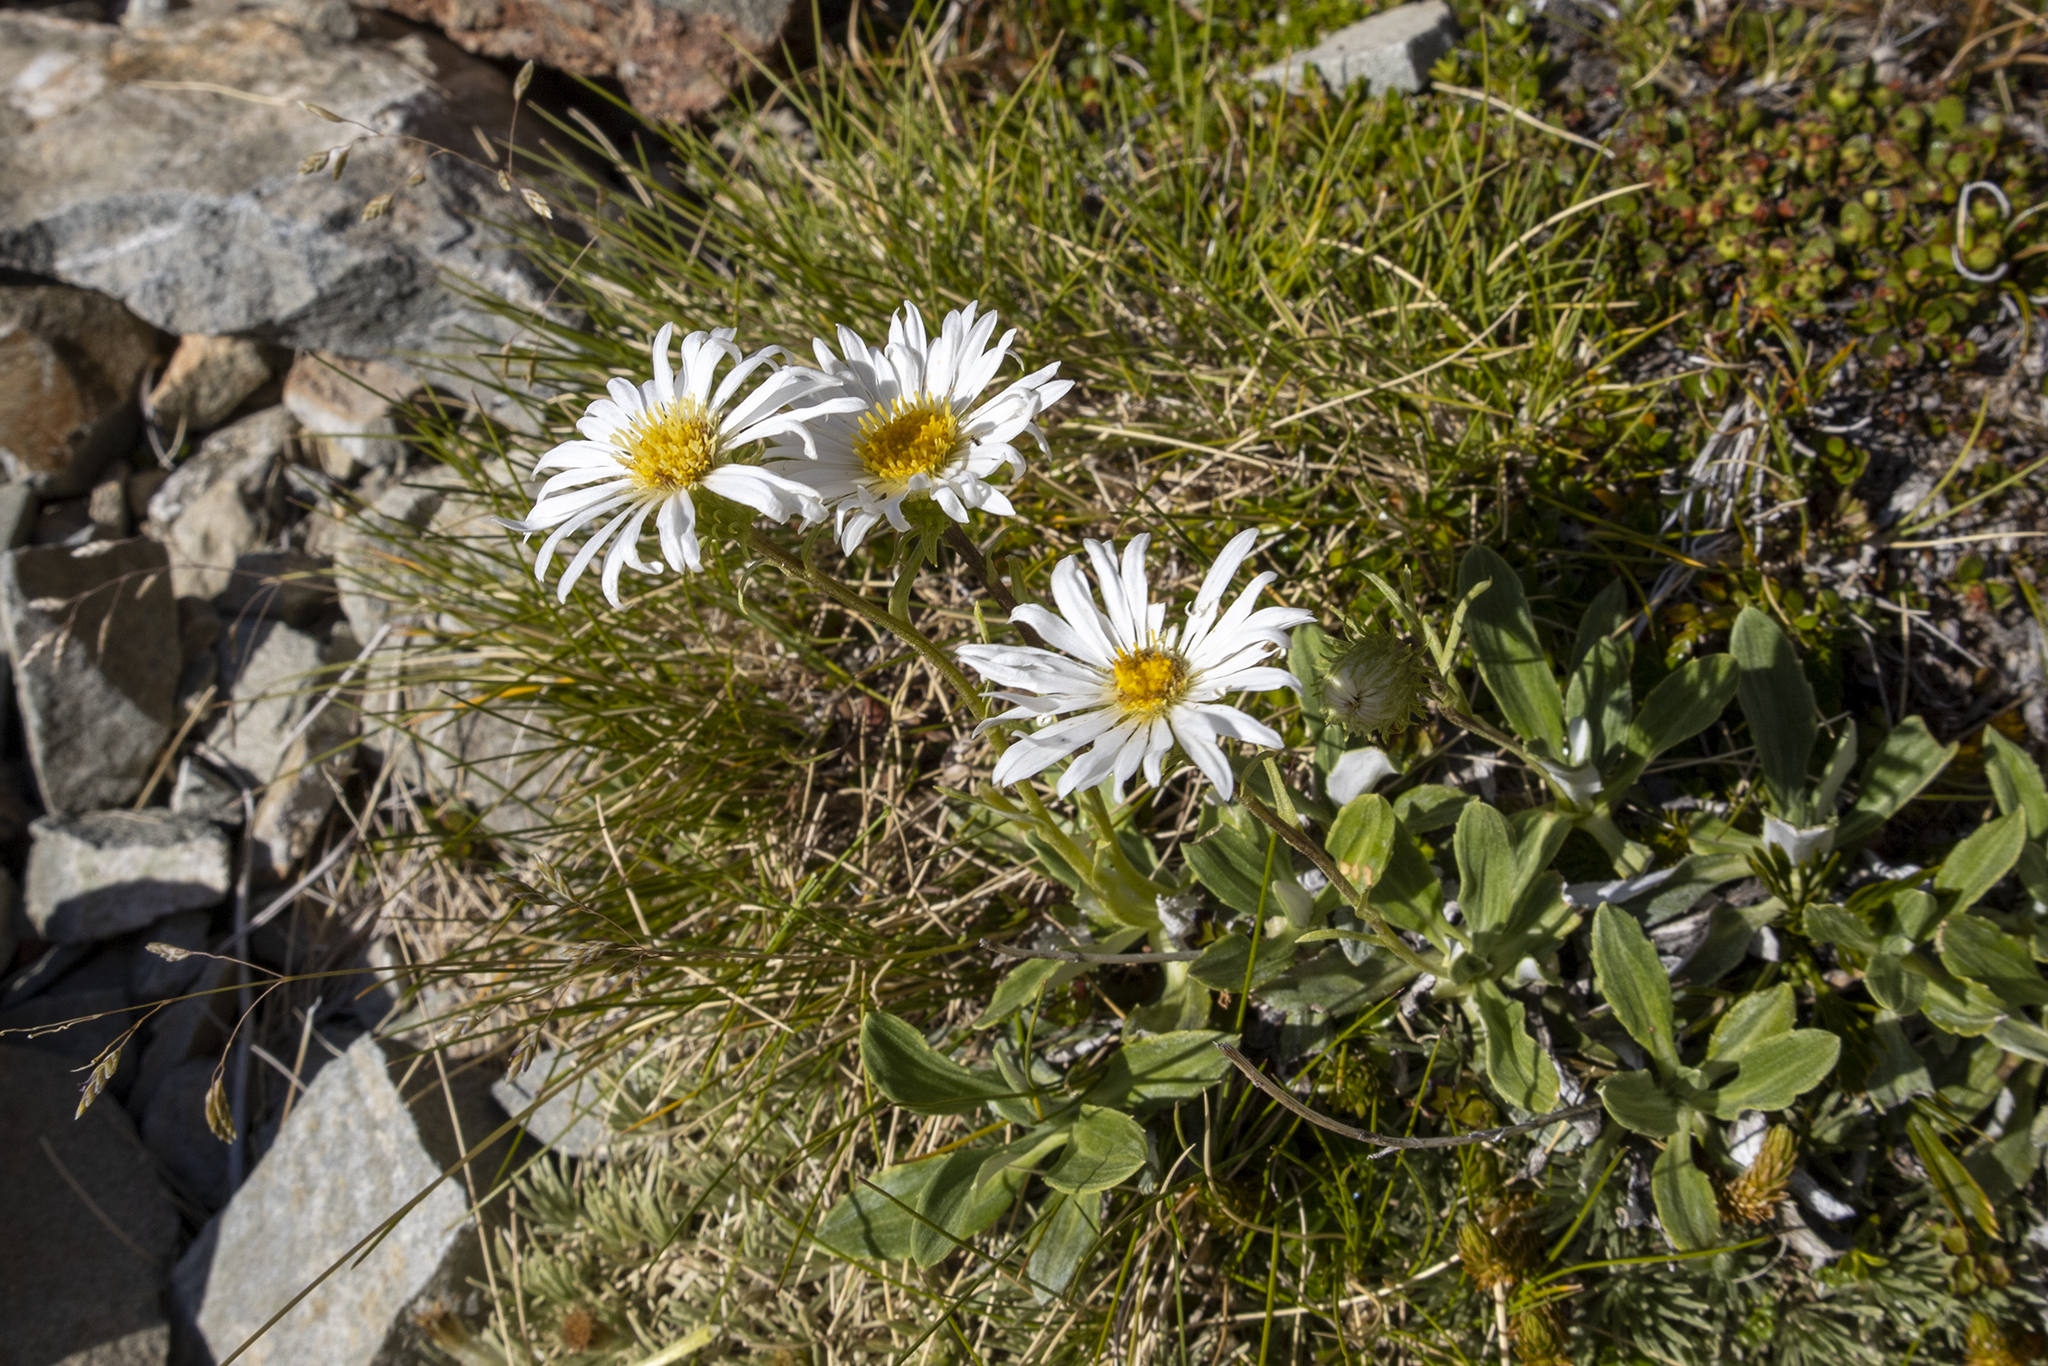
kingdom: Plantae
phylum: Tracheophyta
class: Magnoliopsida
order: Asterales
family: Asteraceae
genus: Celmisia
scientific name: Celmisia durietzii
